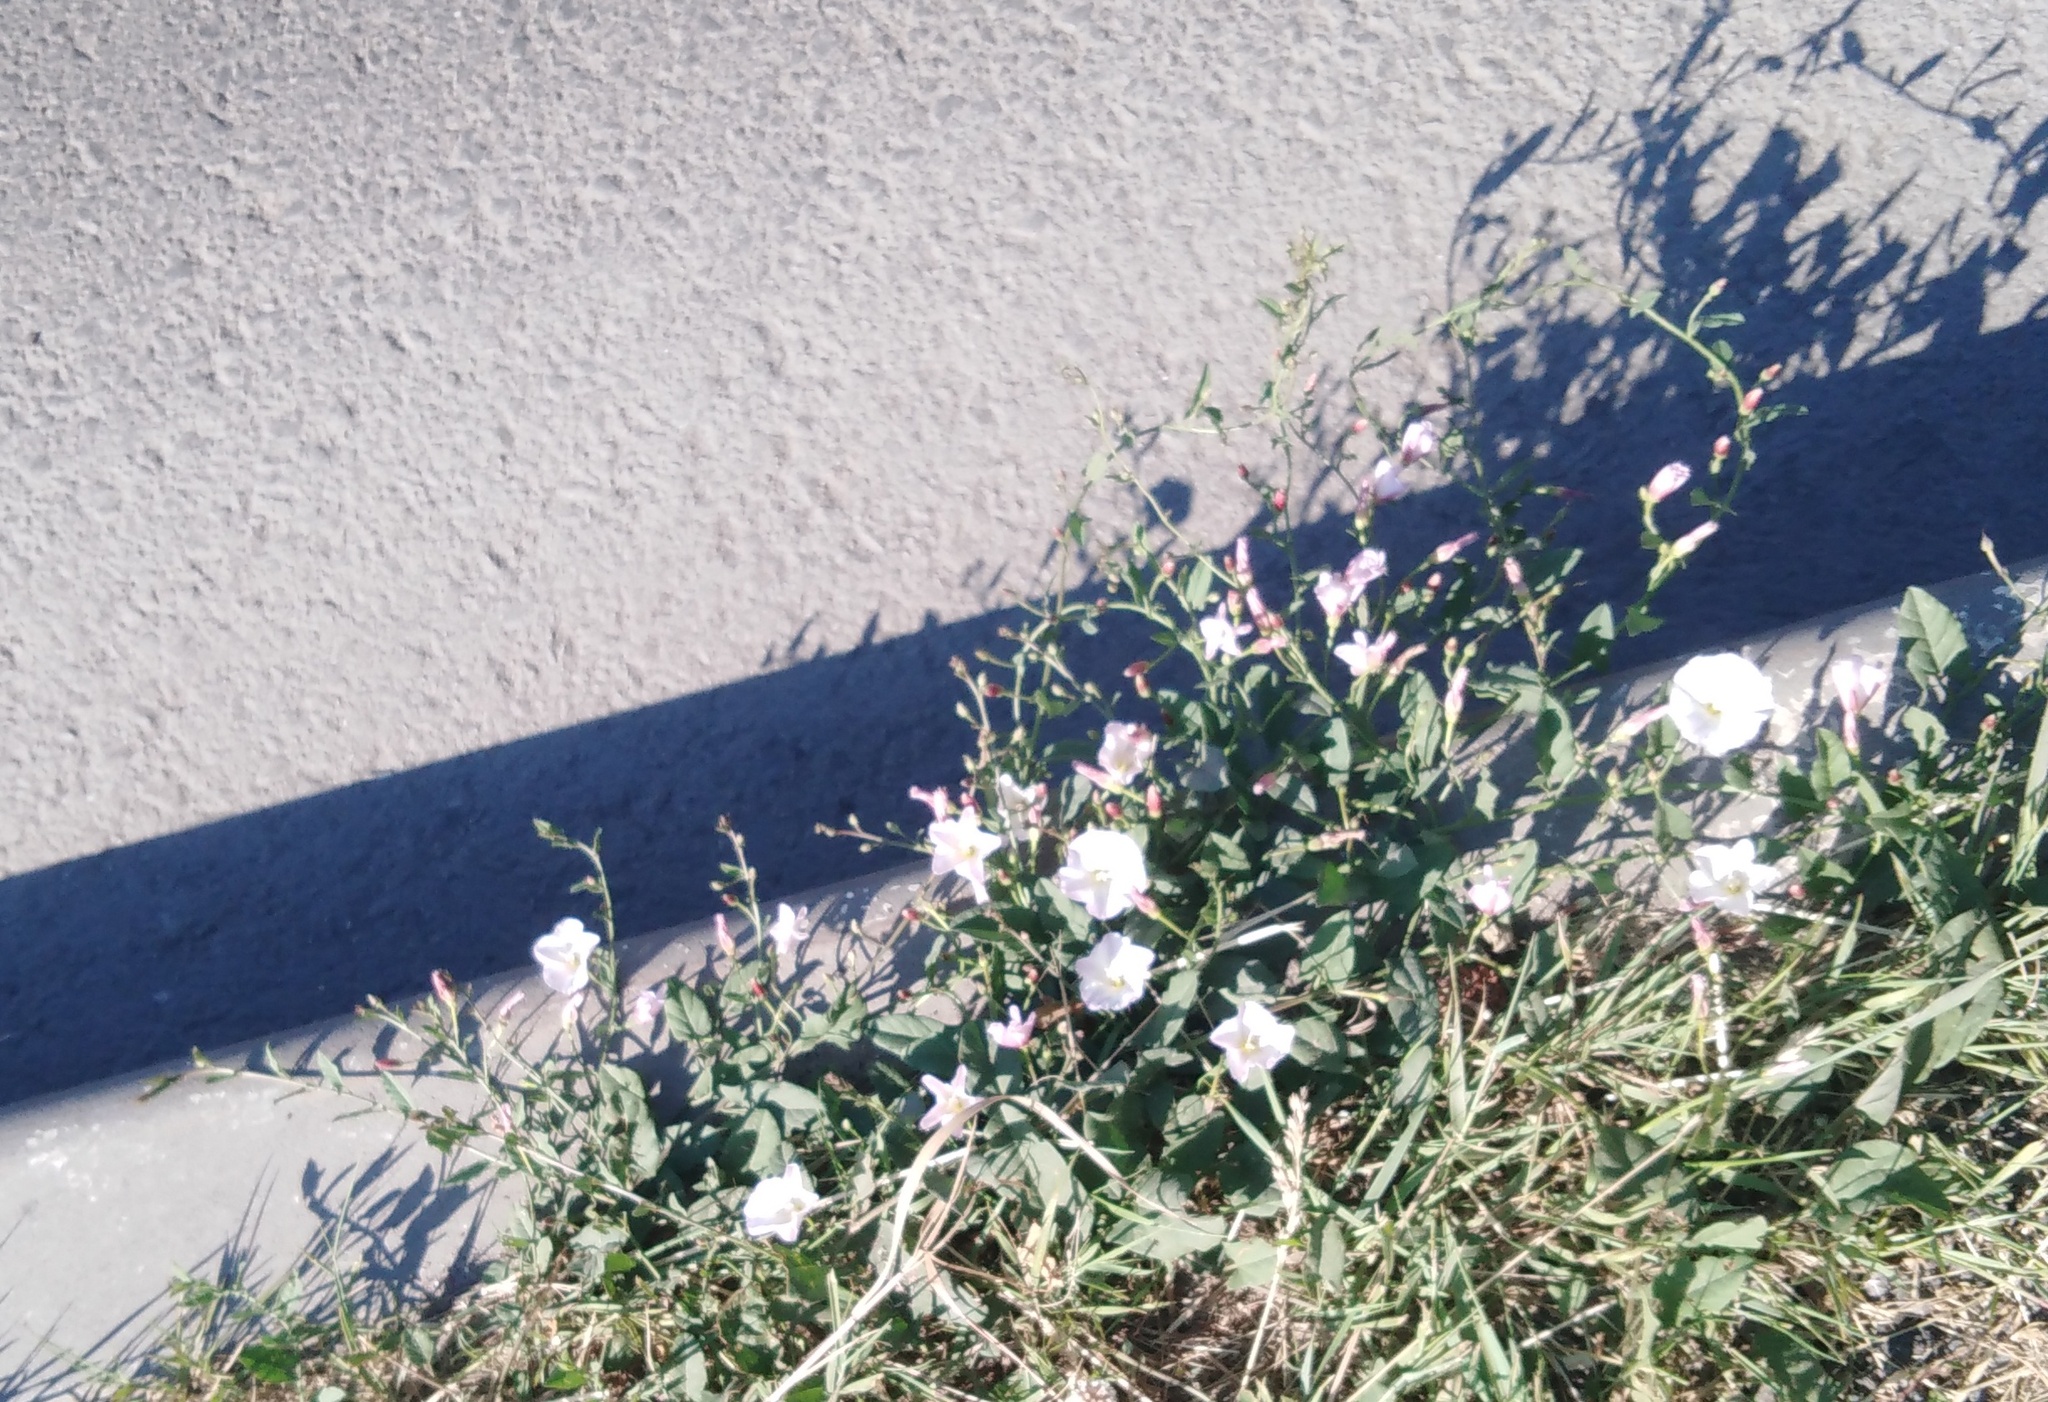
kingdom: Plantae
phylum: Tracheophyta
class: Magnoliopsida
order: Solanales
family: Convolvulaceae
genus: Convolvulus
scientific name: Convolvulus arvensis
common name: Field bindweed
